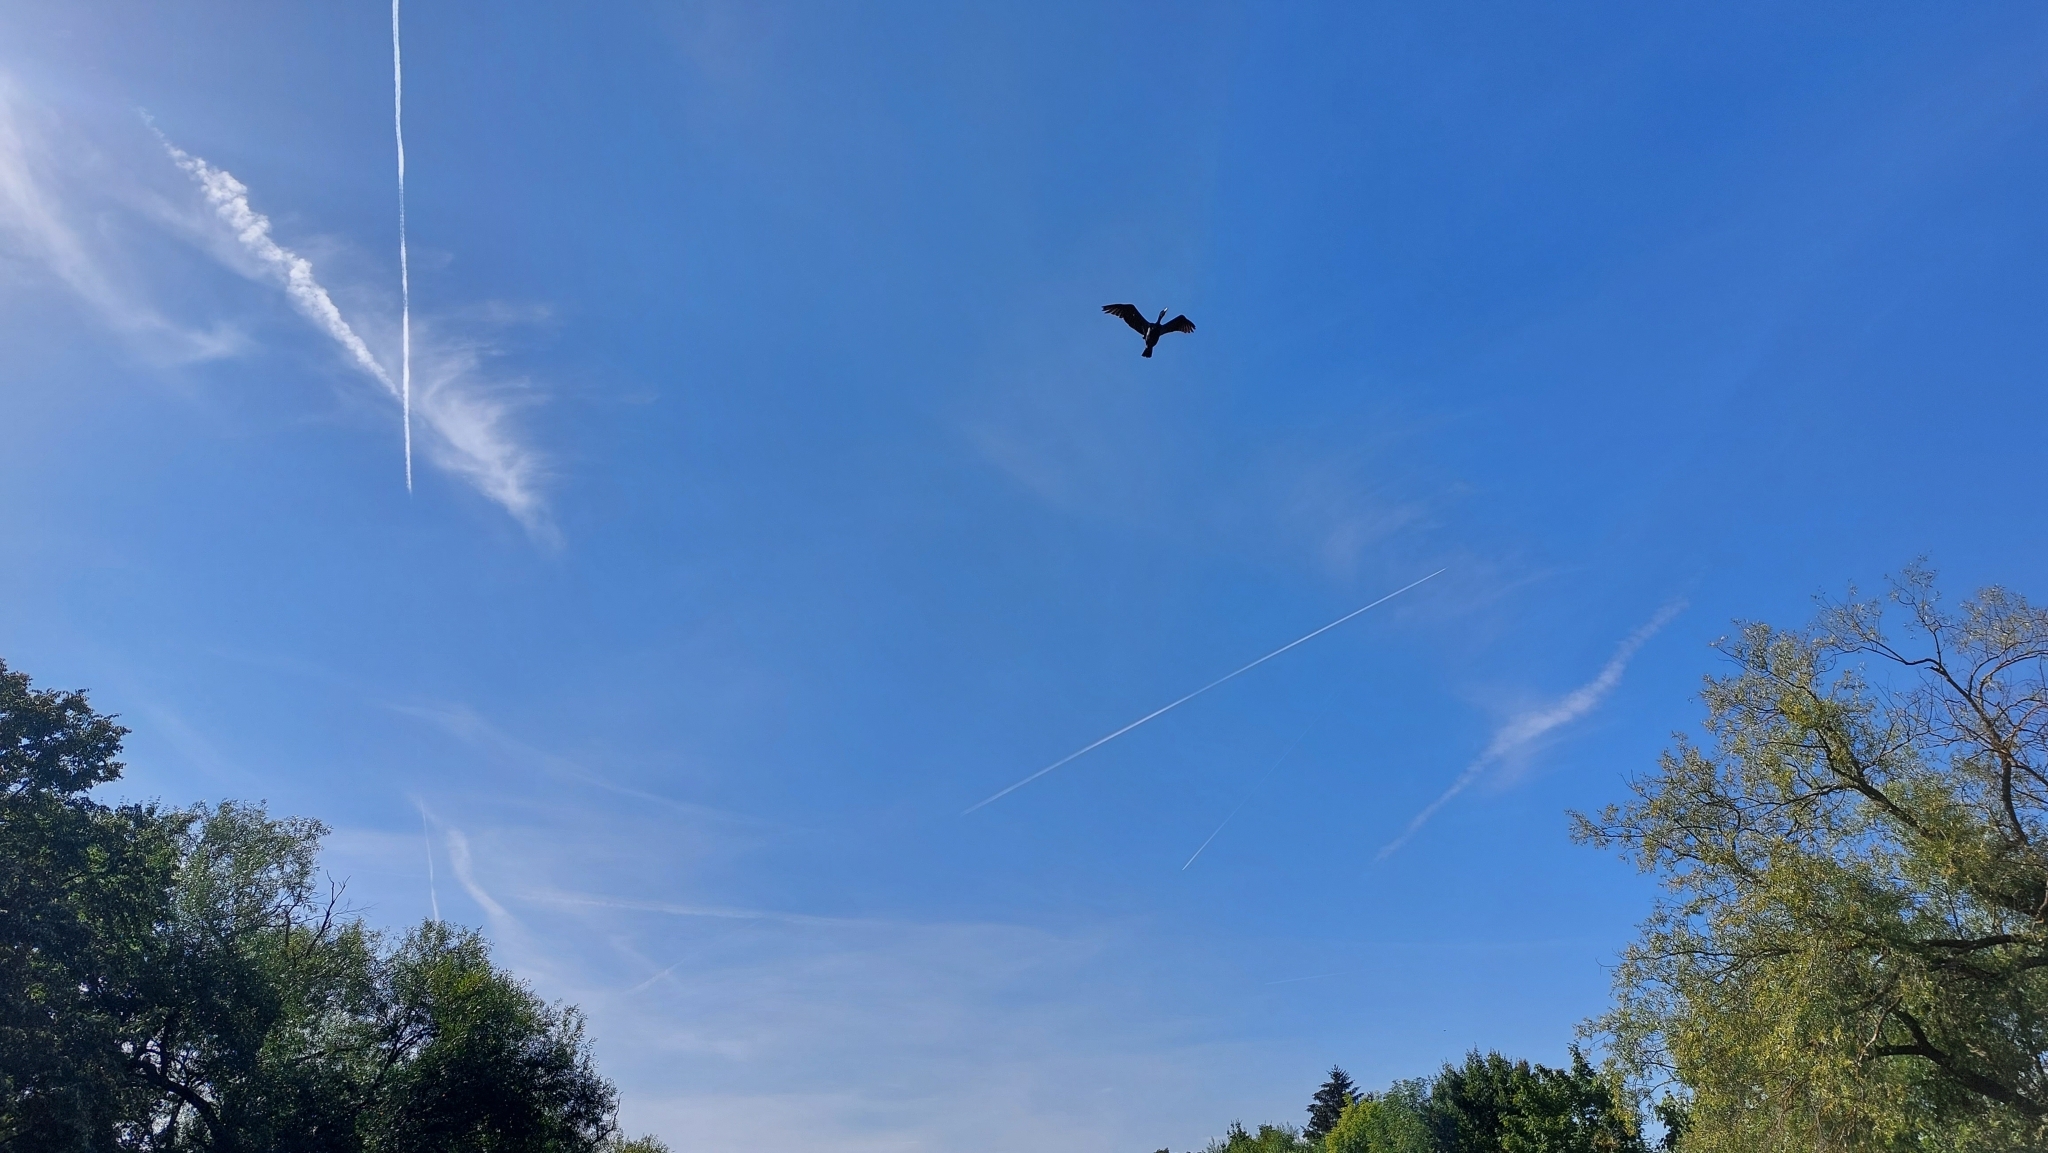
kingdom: Animalia
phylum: Chordata
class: Aves
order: Suliformes
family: Phalacrocoracidae
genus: Phalacrocorax
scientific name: Phalacrocorax carbo
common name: Great cormorant
